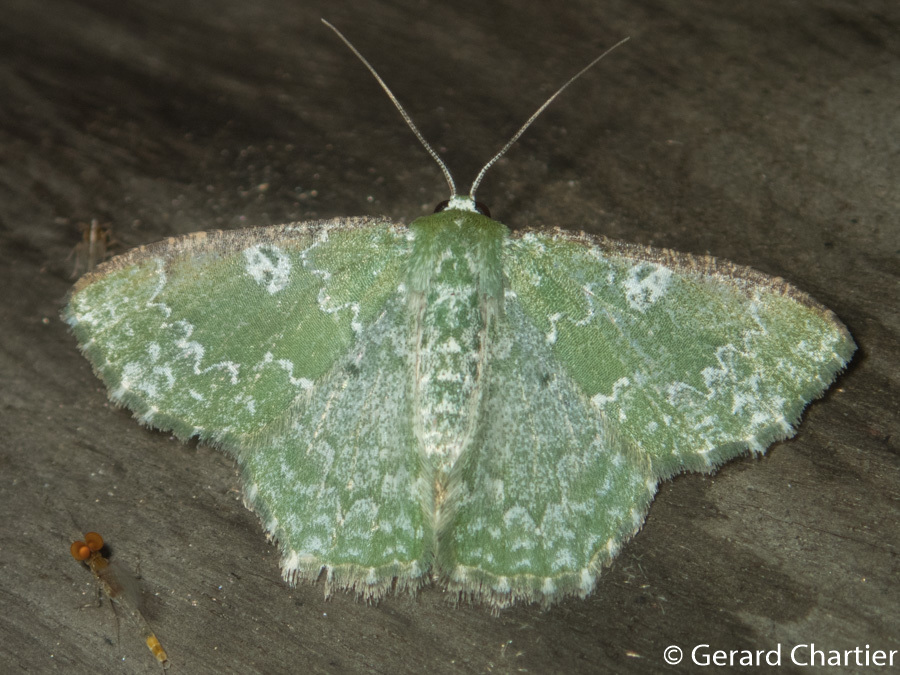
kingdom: Animalia
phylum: Arthropoda
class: Insecta
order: Lepidoptera
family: Geometridae
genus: Eucyclodes
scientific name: Eucyclodes albisparsa
